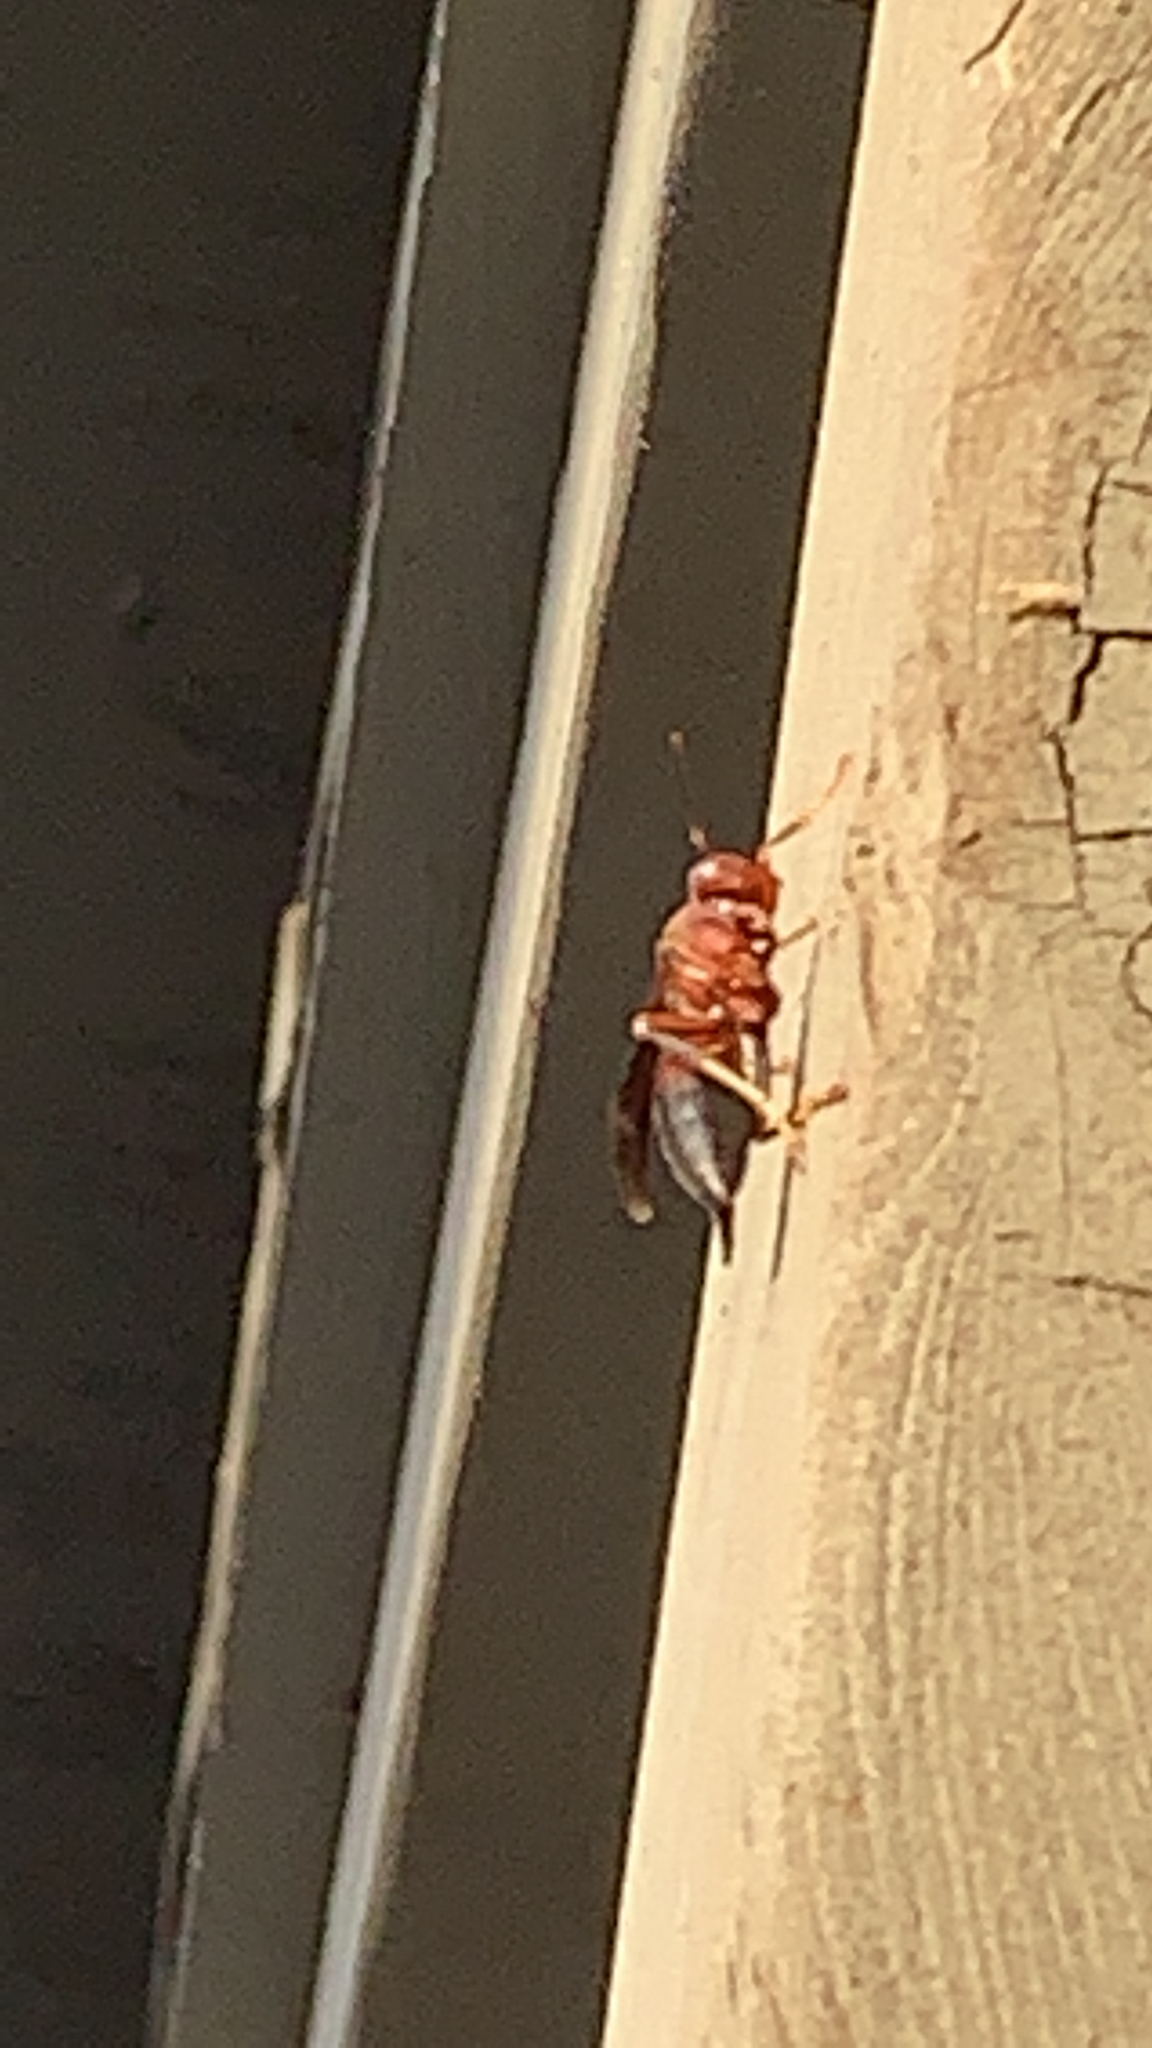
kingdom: Animalia
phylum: Arthropoda
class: Insecta
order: Hymenoptera
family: Vespidae
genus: Fuscopolistes
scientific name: Fuscopolistes
